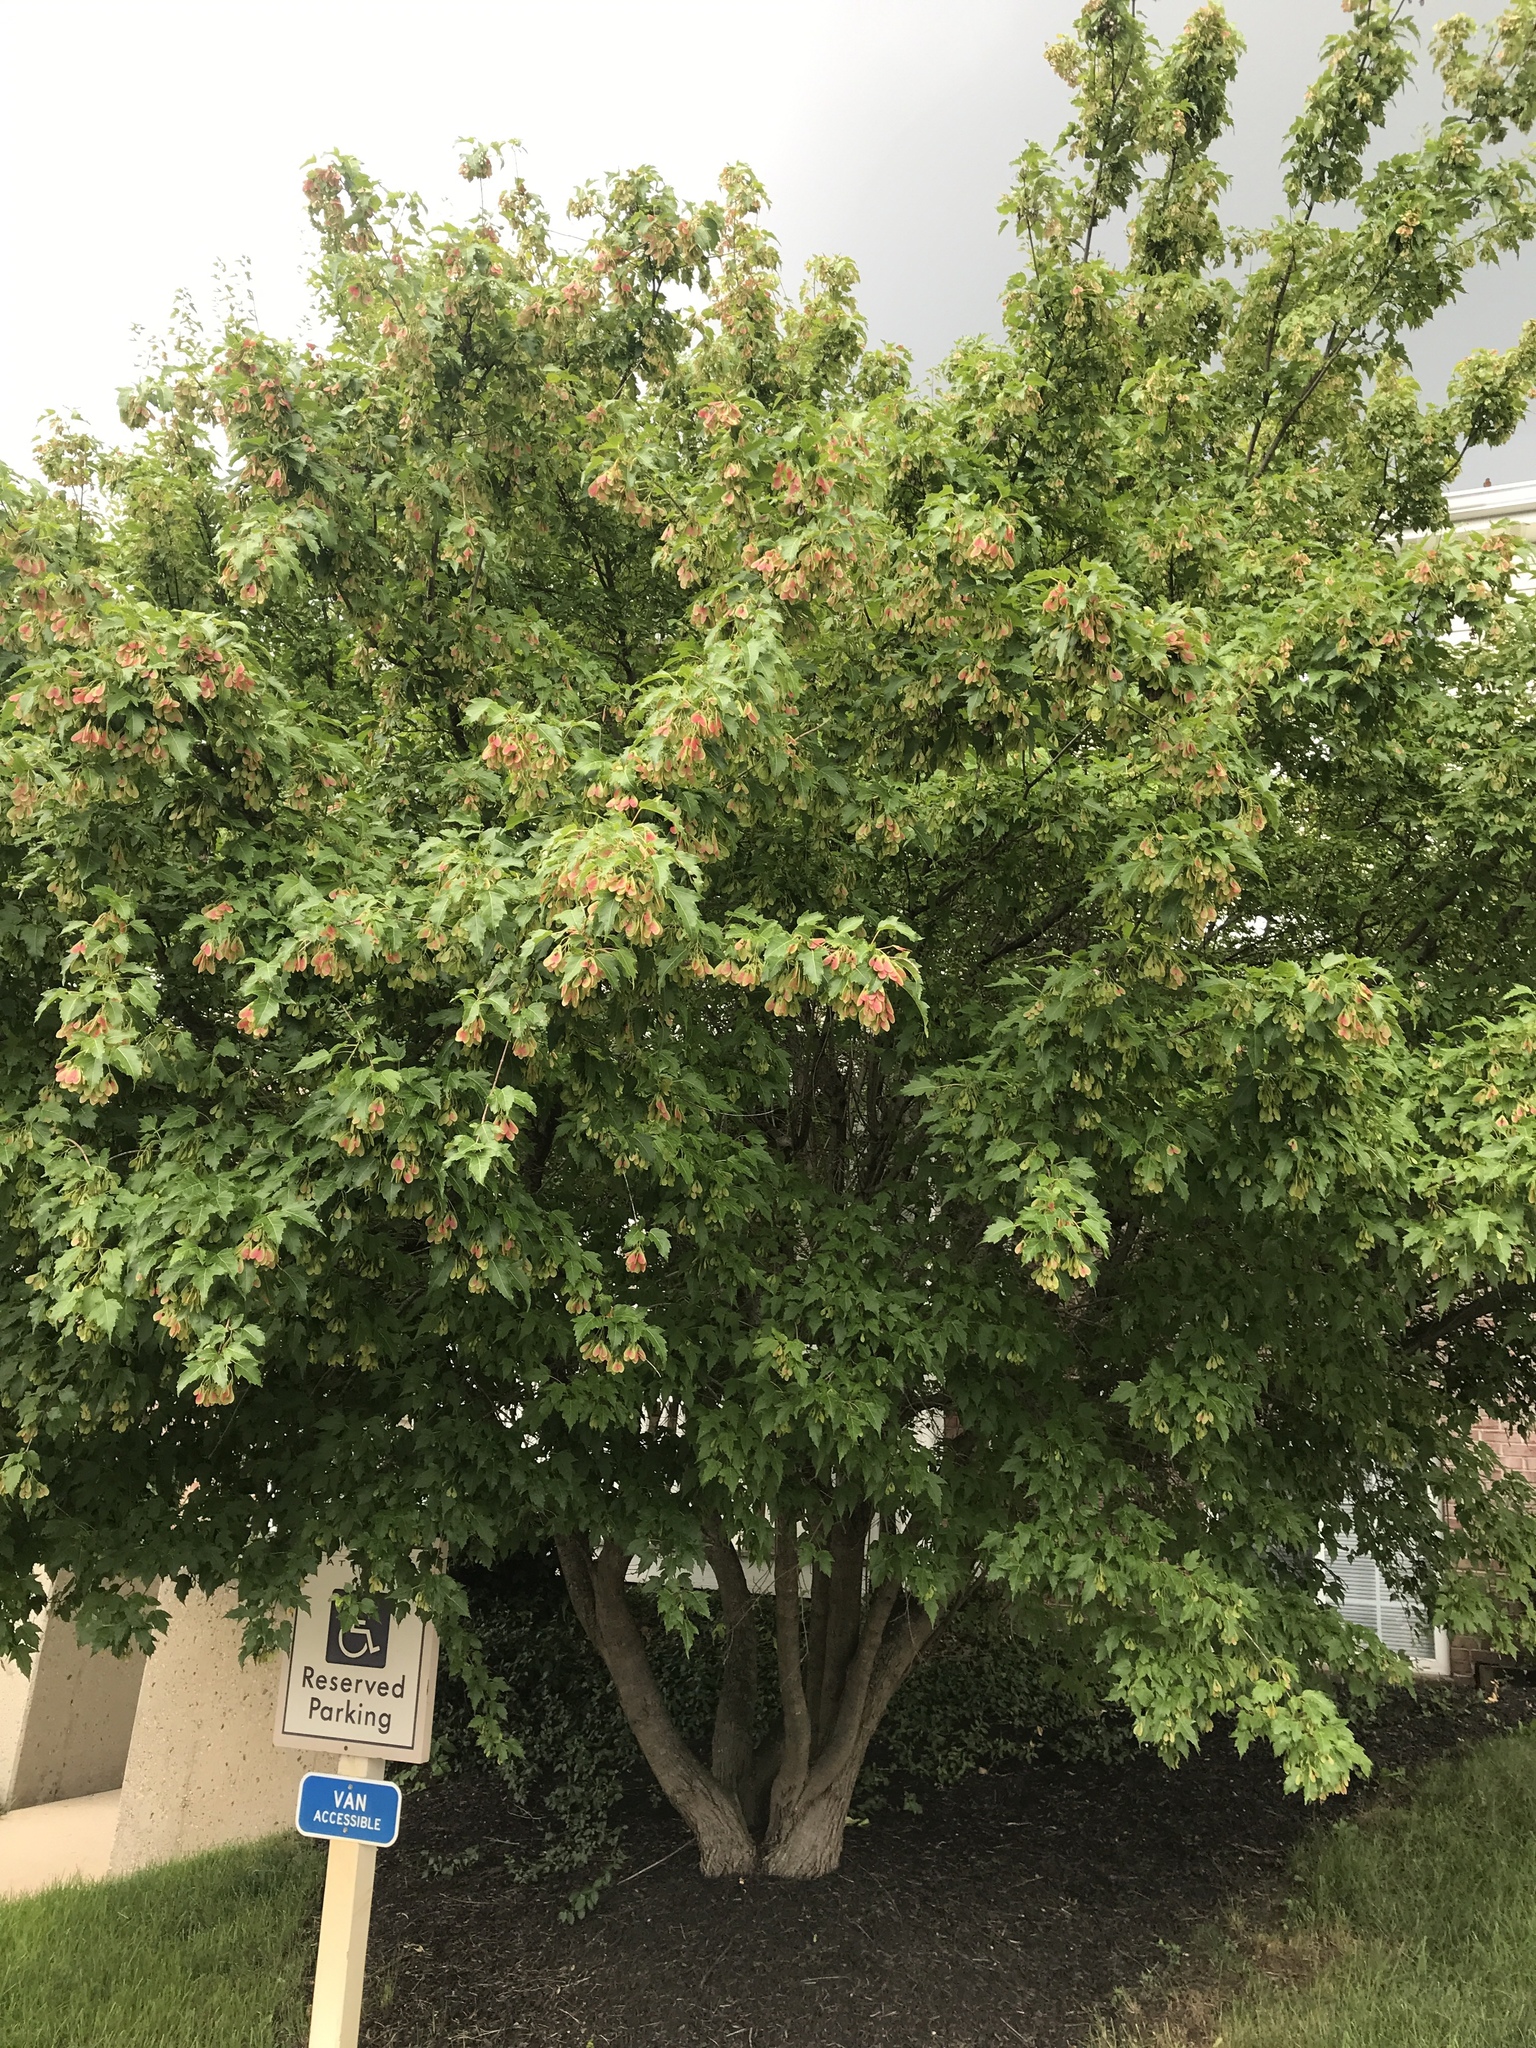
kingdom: Plantae
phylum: Tracheophyta
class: Magnoliopsida
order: Sapindales
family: Sapindaceae
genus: Acer
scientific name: Acer tataricum
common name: Tartar maple
